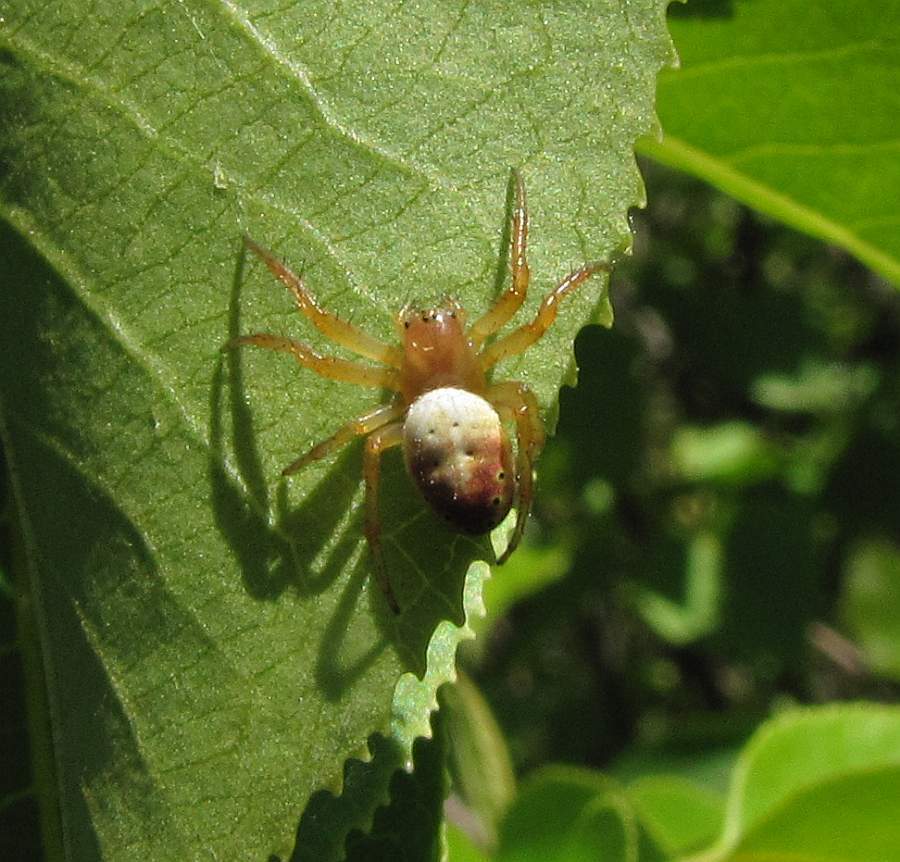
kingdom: Animalia
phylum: Arthropoda
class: Arachnida
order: Araneae
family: Araneidae
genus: Araniella
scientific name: Araniella displicata
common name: Sixspotted orb weaver
